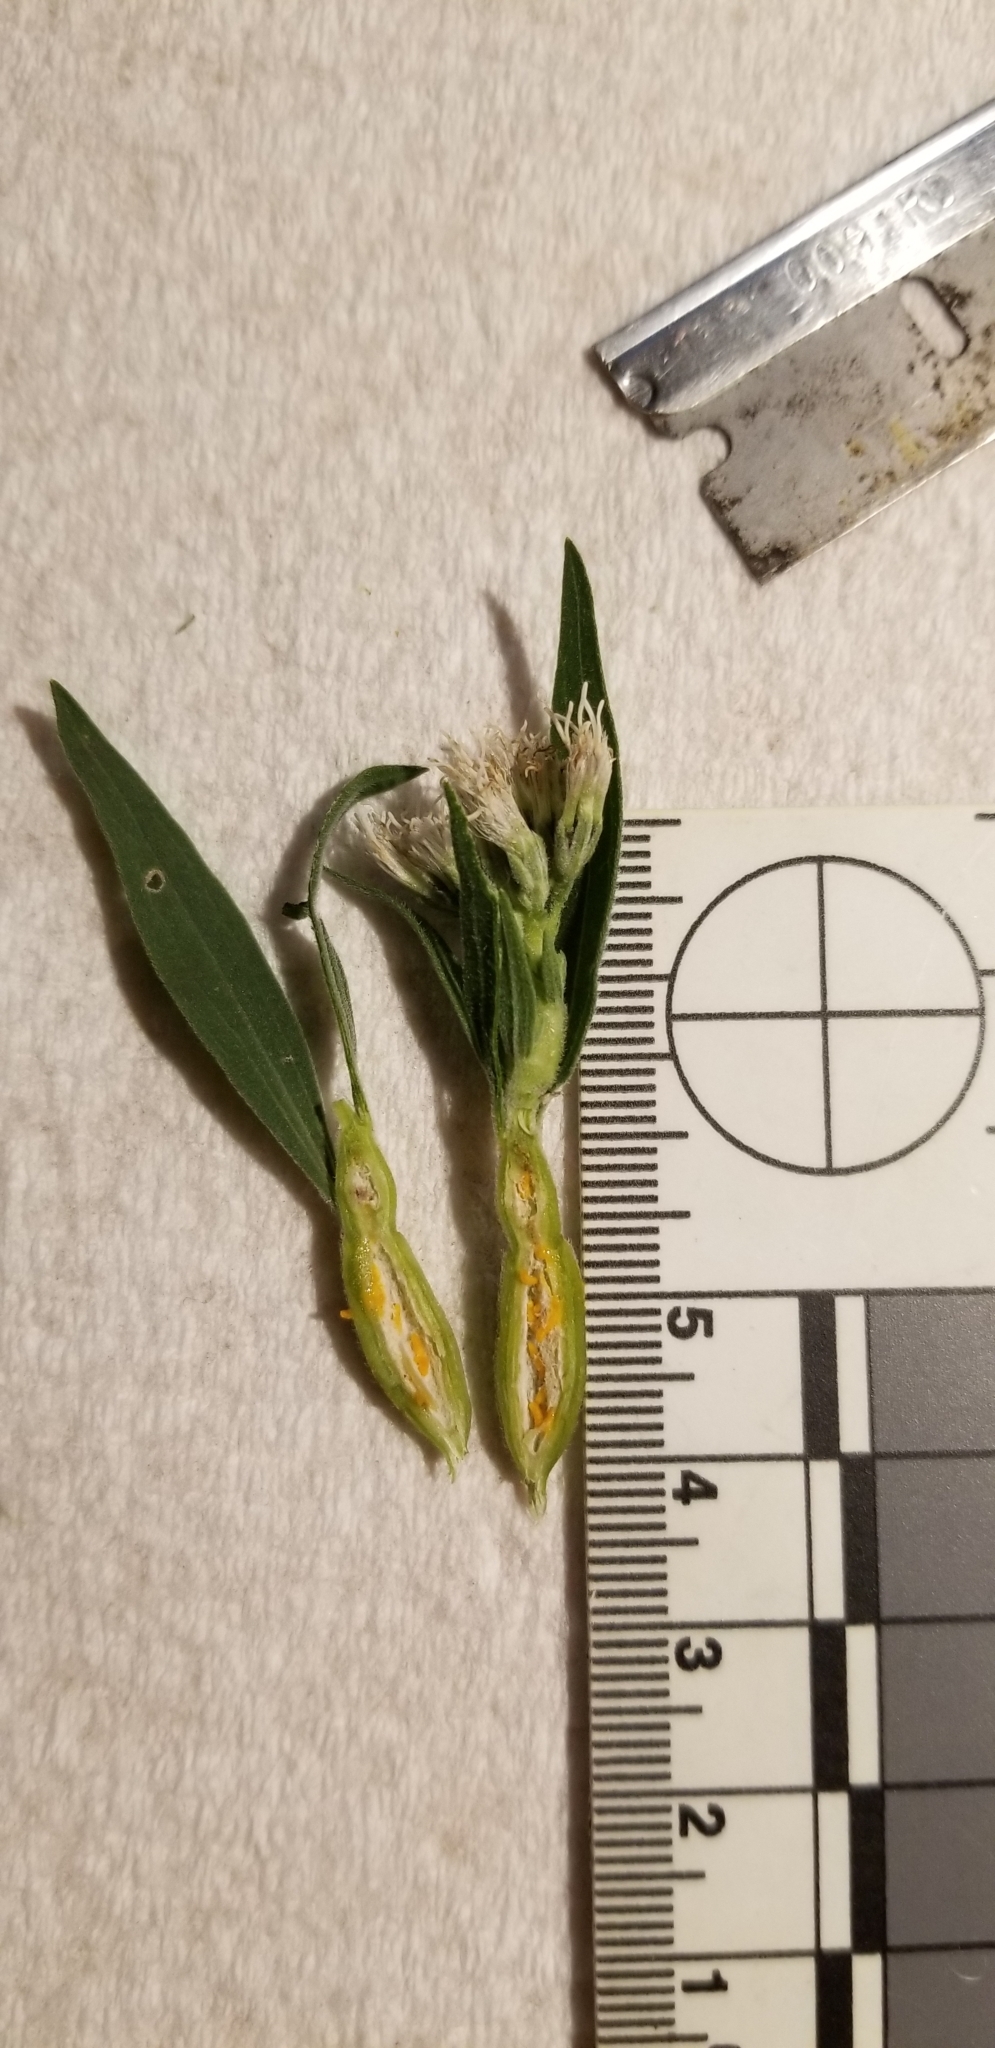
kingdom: Animalia
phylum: Arthropoda
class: Insecta
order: Diptera
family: Cecidomyiidae
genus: Neolasioptera
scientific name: Neolasioptera perfoliata
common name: Boneset stem midge
